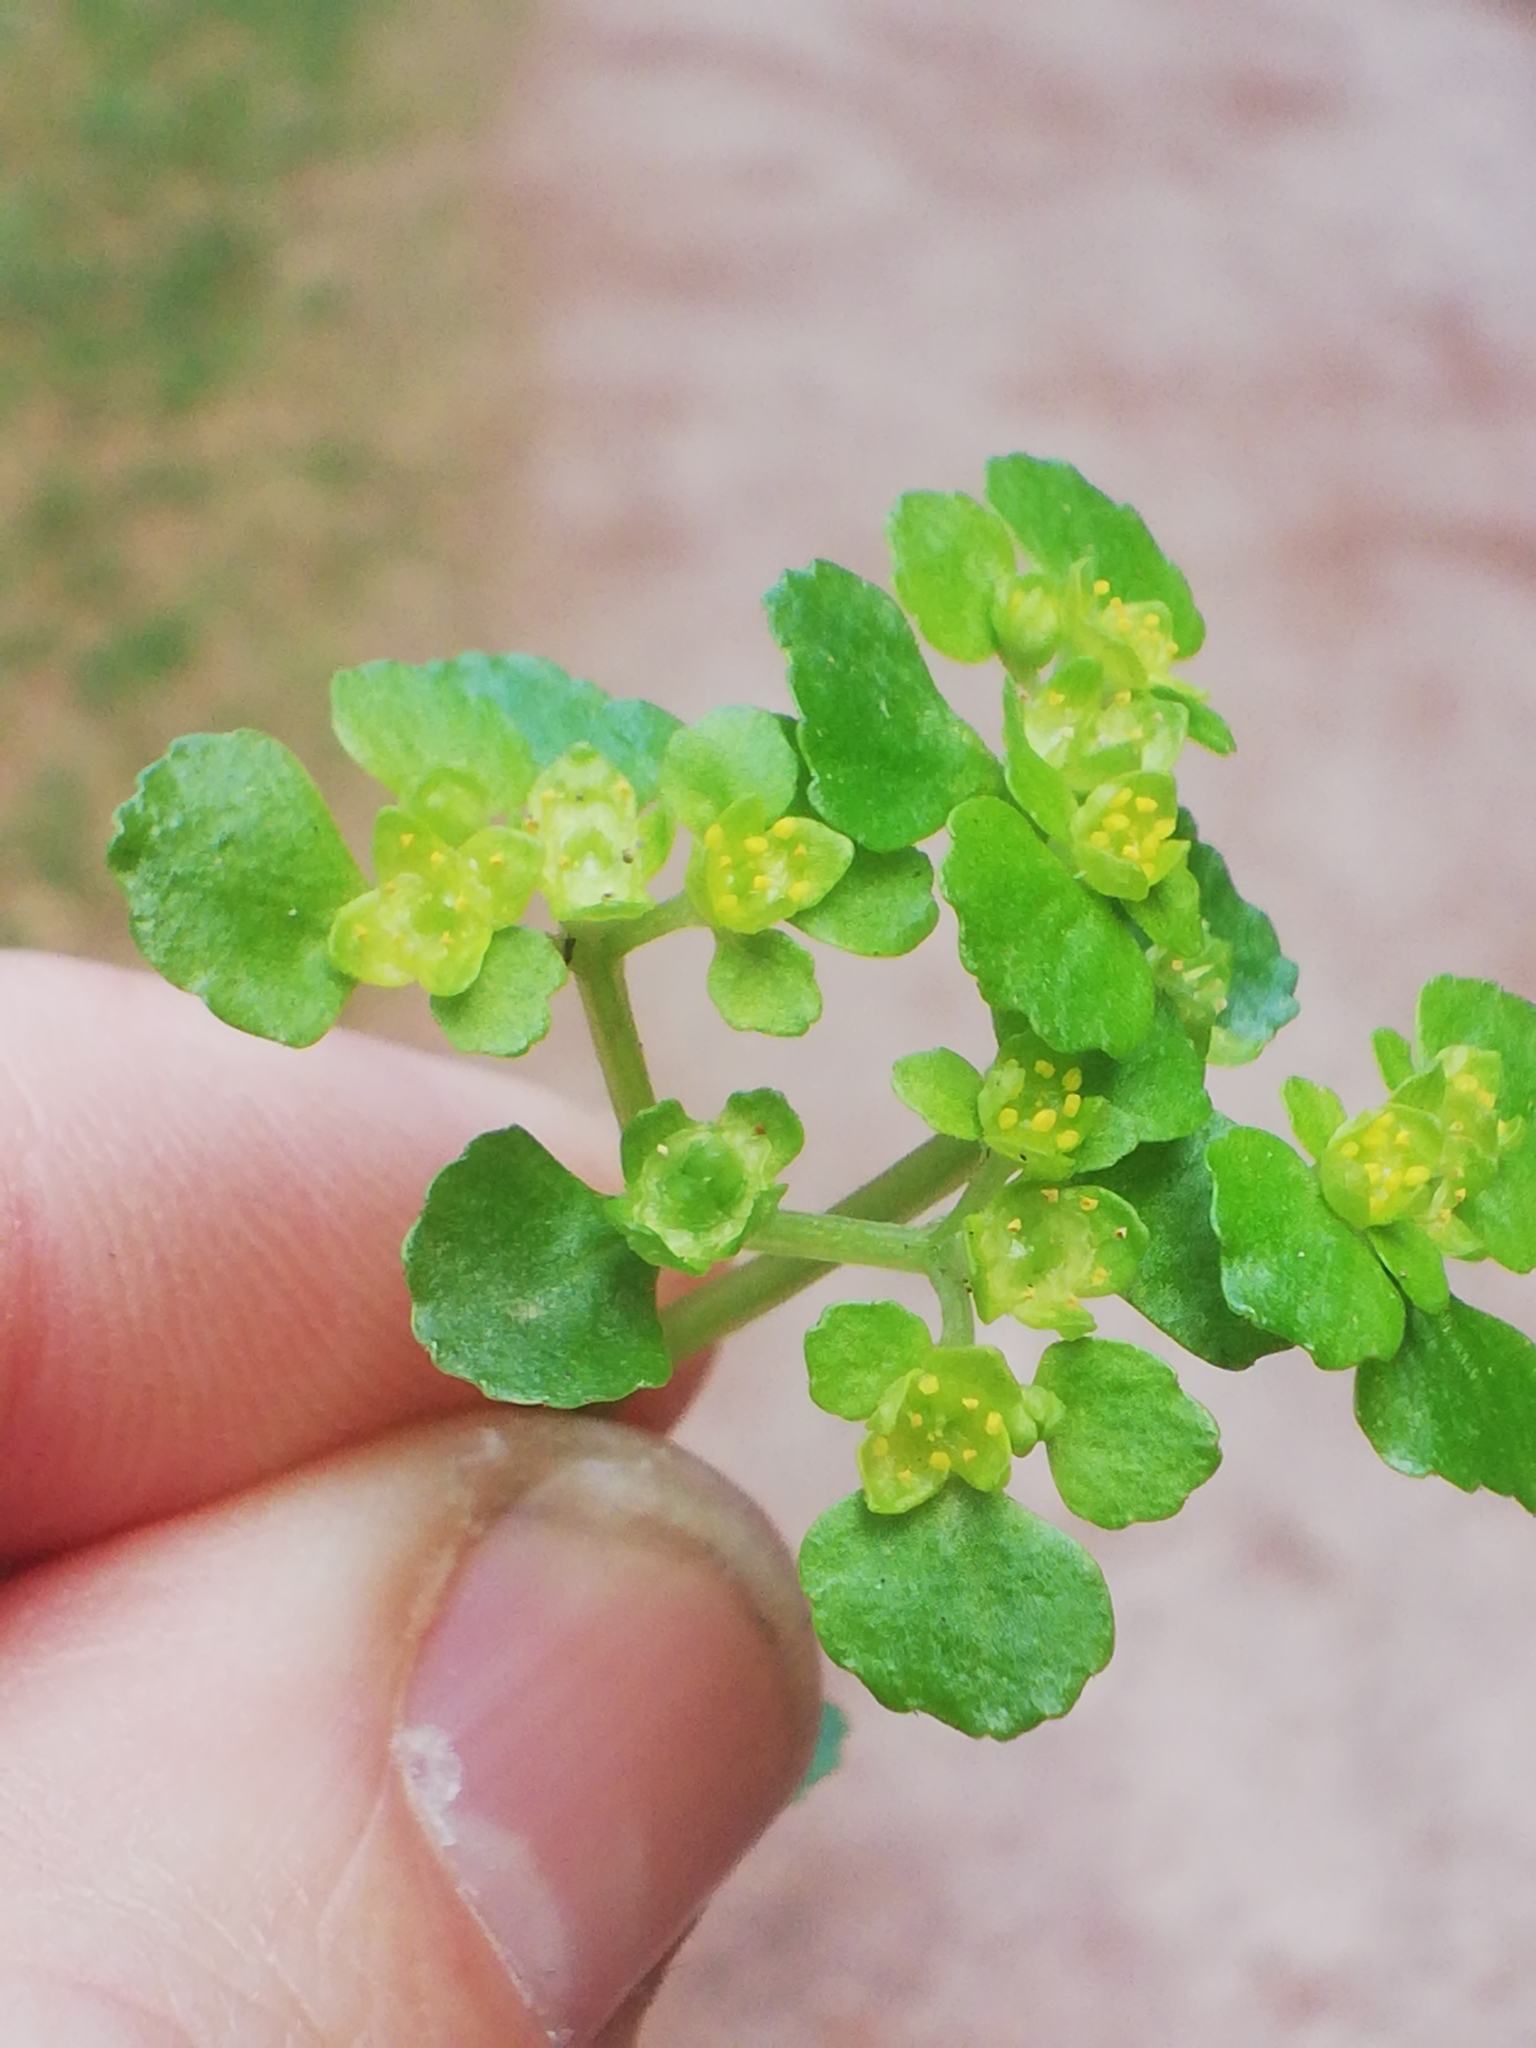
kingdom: Plantae
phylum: Tracheophyta
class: Magnoliopsida
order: Saxifragales
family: Saxifragaceae
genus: Chrysosplenium
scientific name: Chrysosplenium oppositifolium
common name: Opposite-leaved golden-saxifrage
